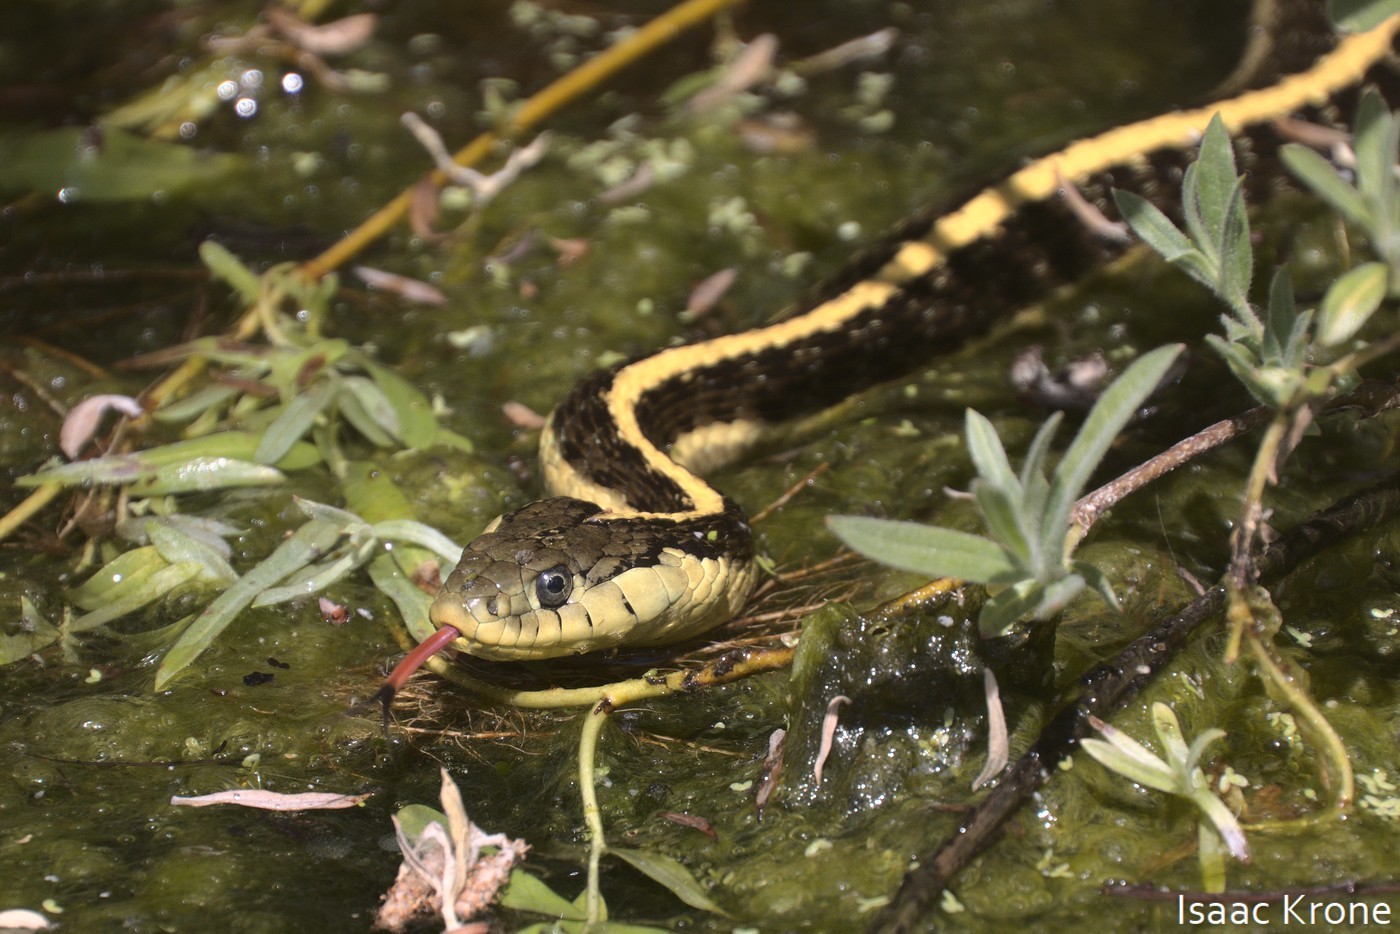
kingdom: Animalia
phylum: Chordata
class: Squamata
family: Colubridae
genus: Thamnophis
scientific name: Thamnophis atratus
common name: Pacific coast aquatic garter snake
